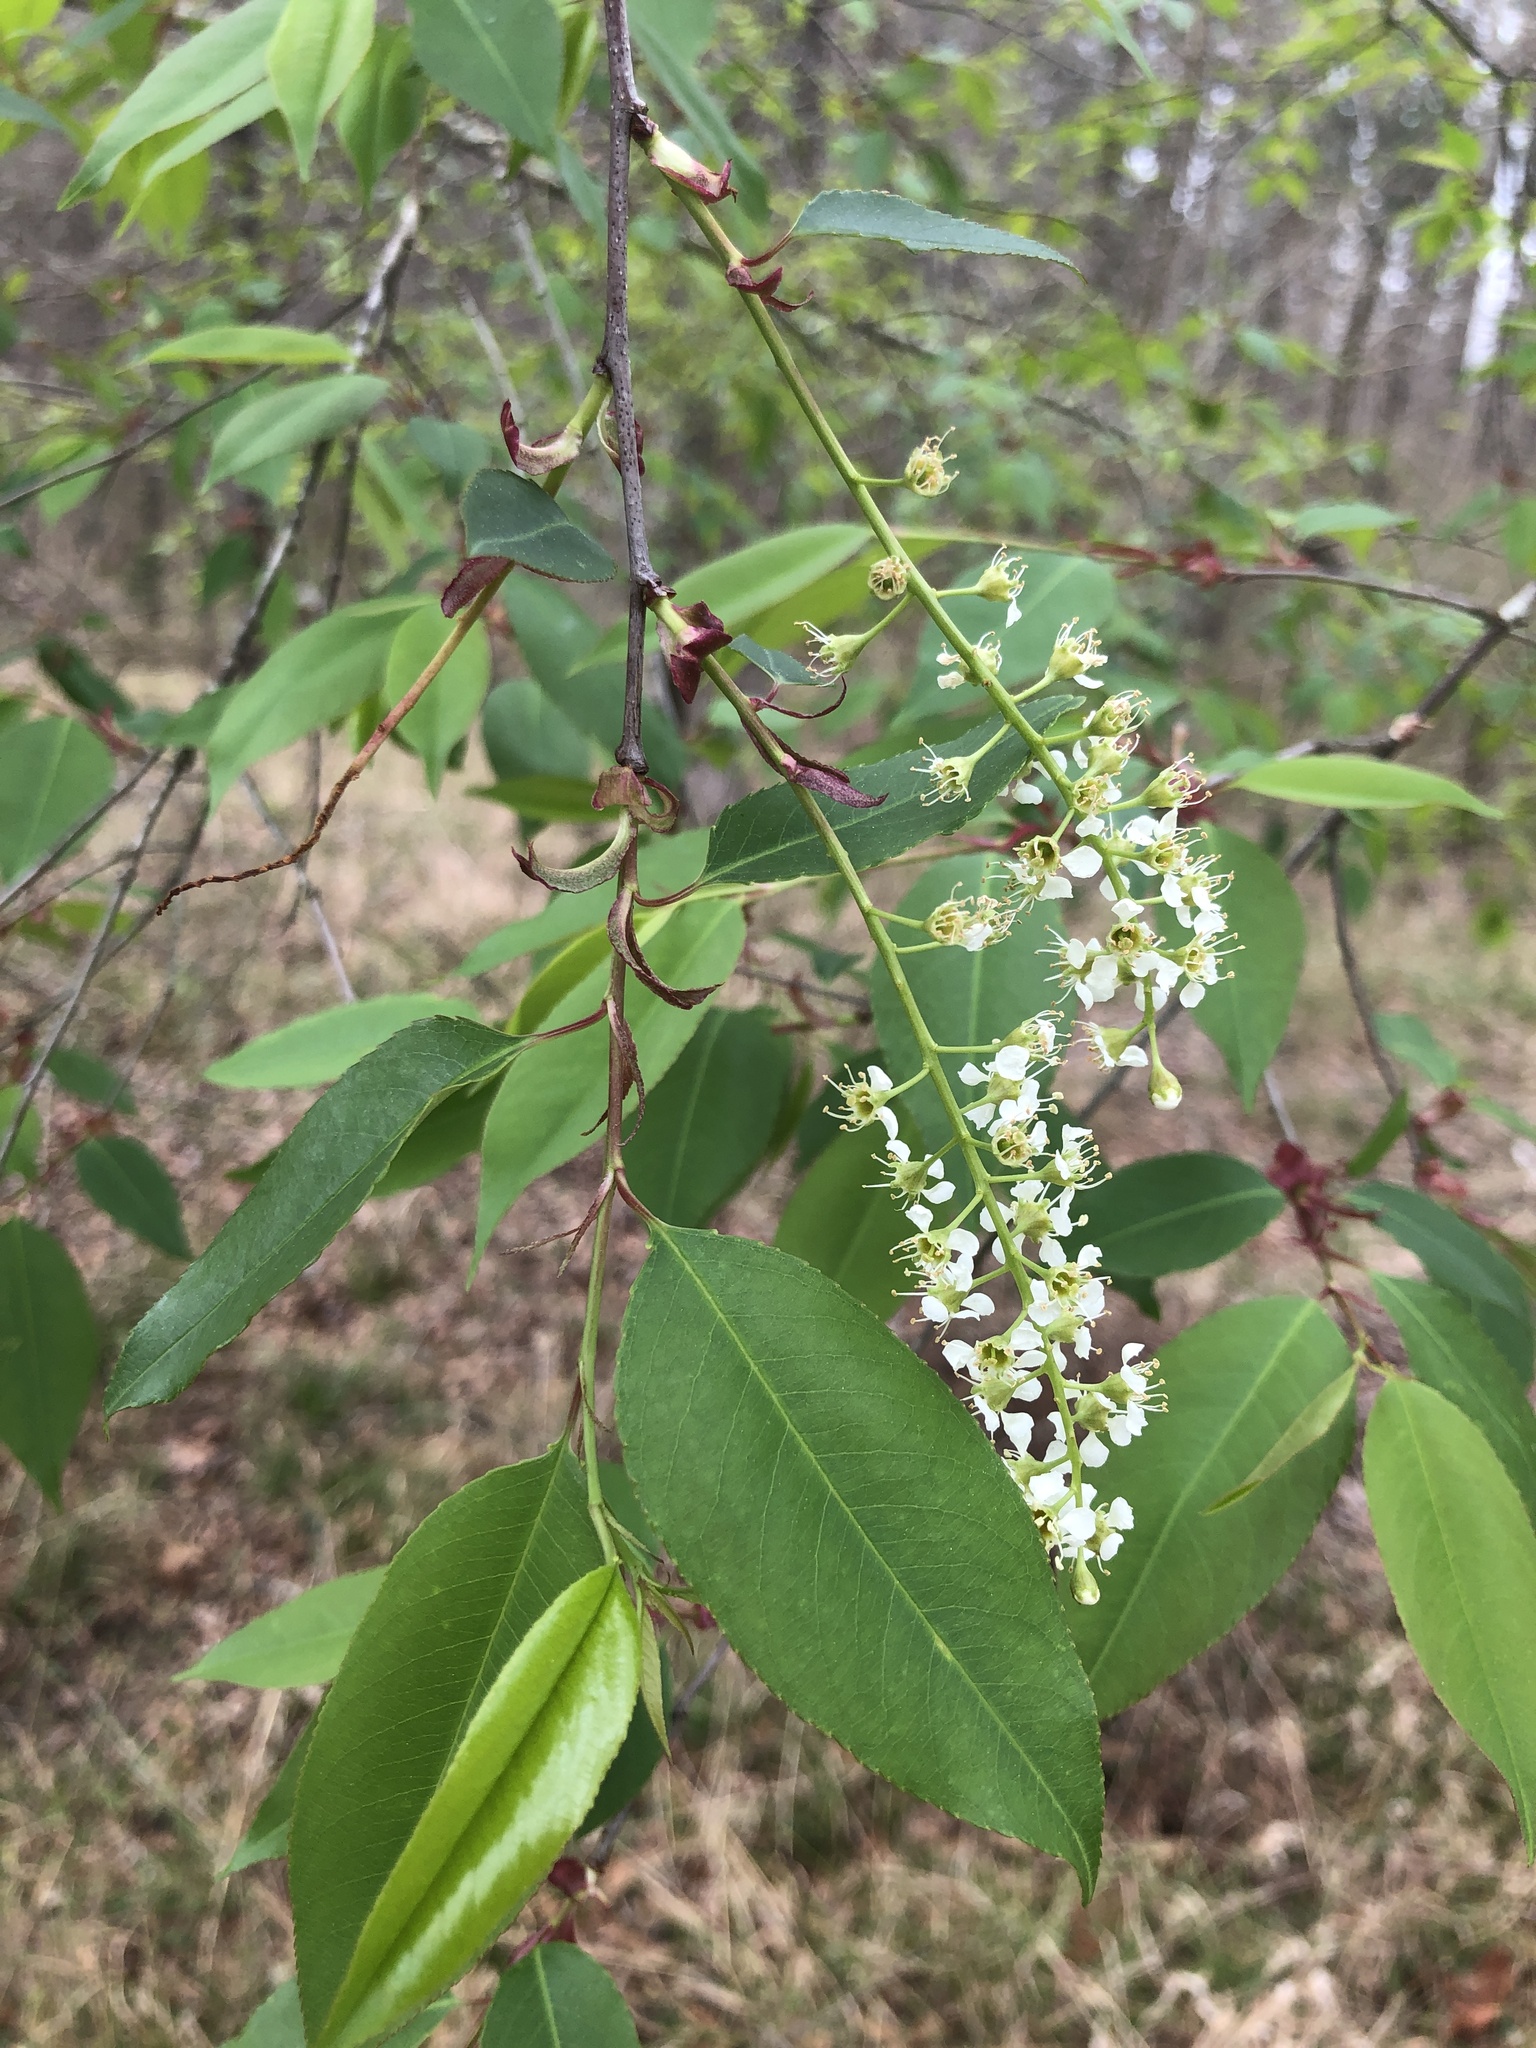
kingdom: Plantae
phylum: Tracheophyta
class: Magnoliopsida
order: Rosales
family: Rosaceae
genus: Prunus
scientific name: Prunus serotina
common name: Black cherry
